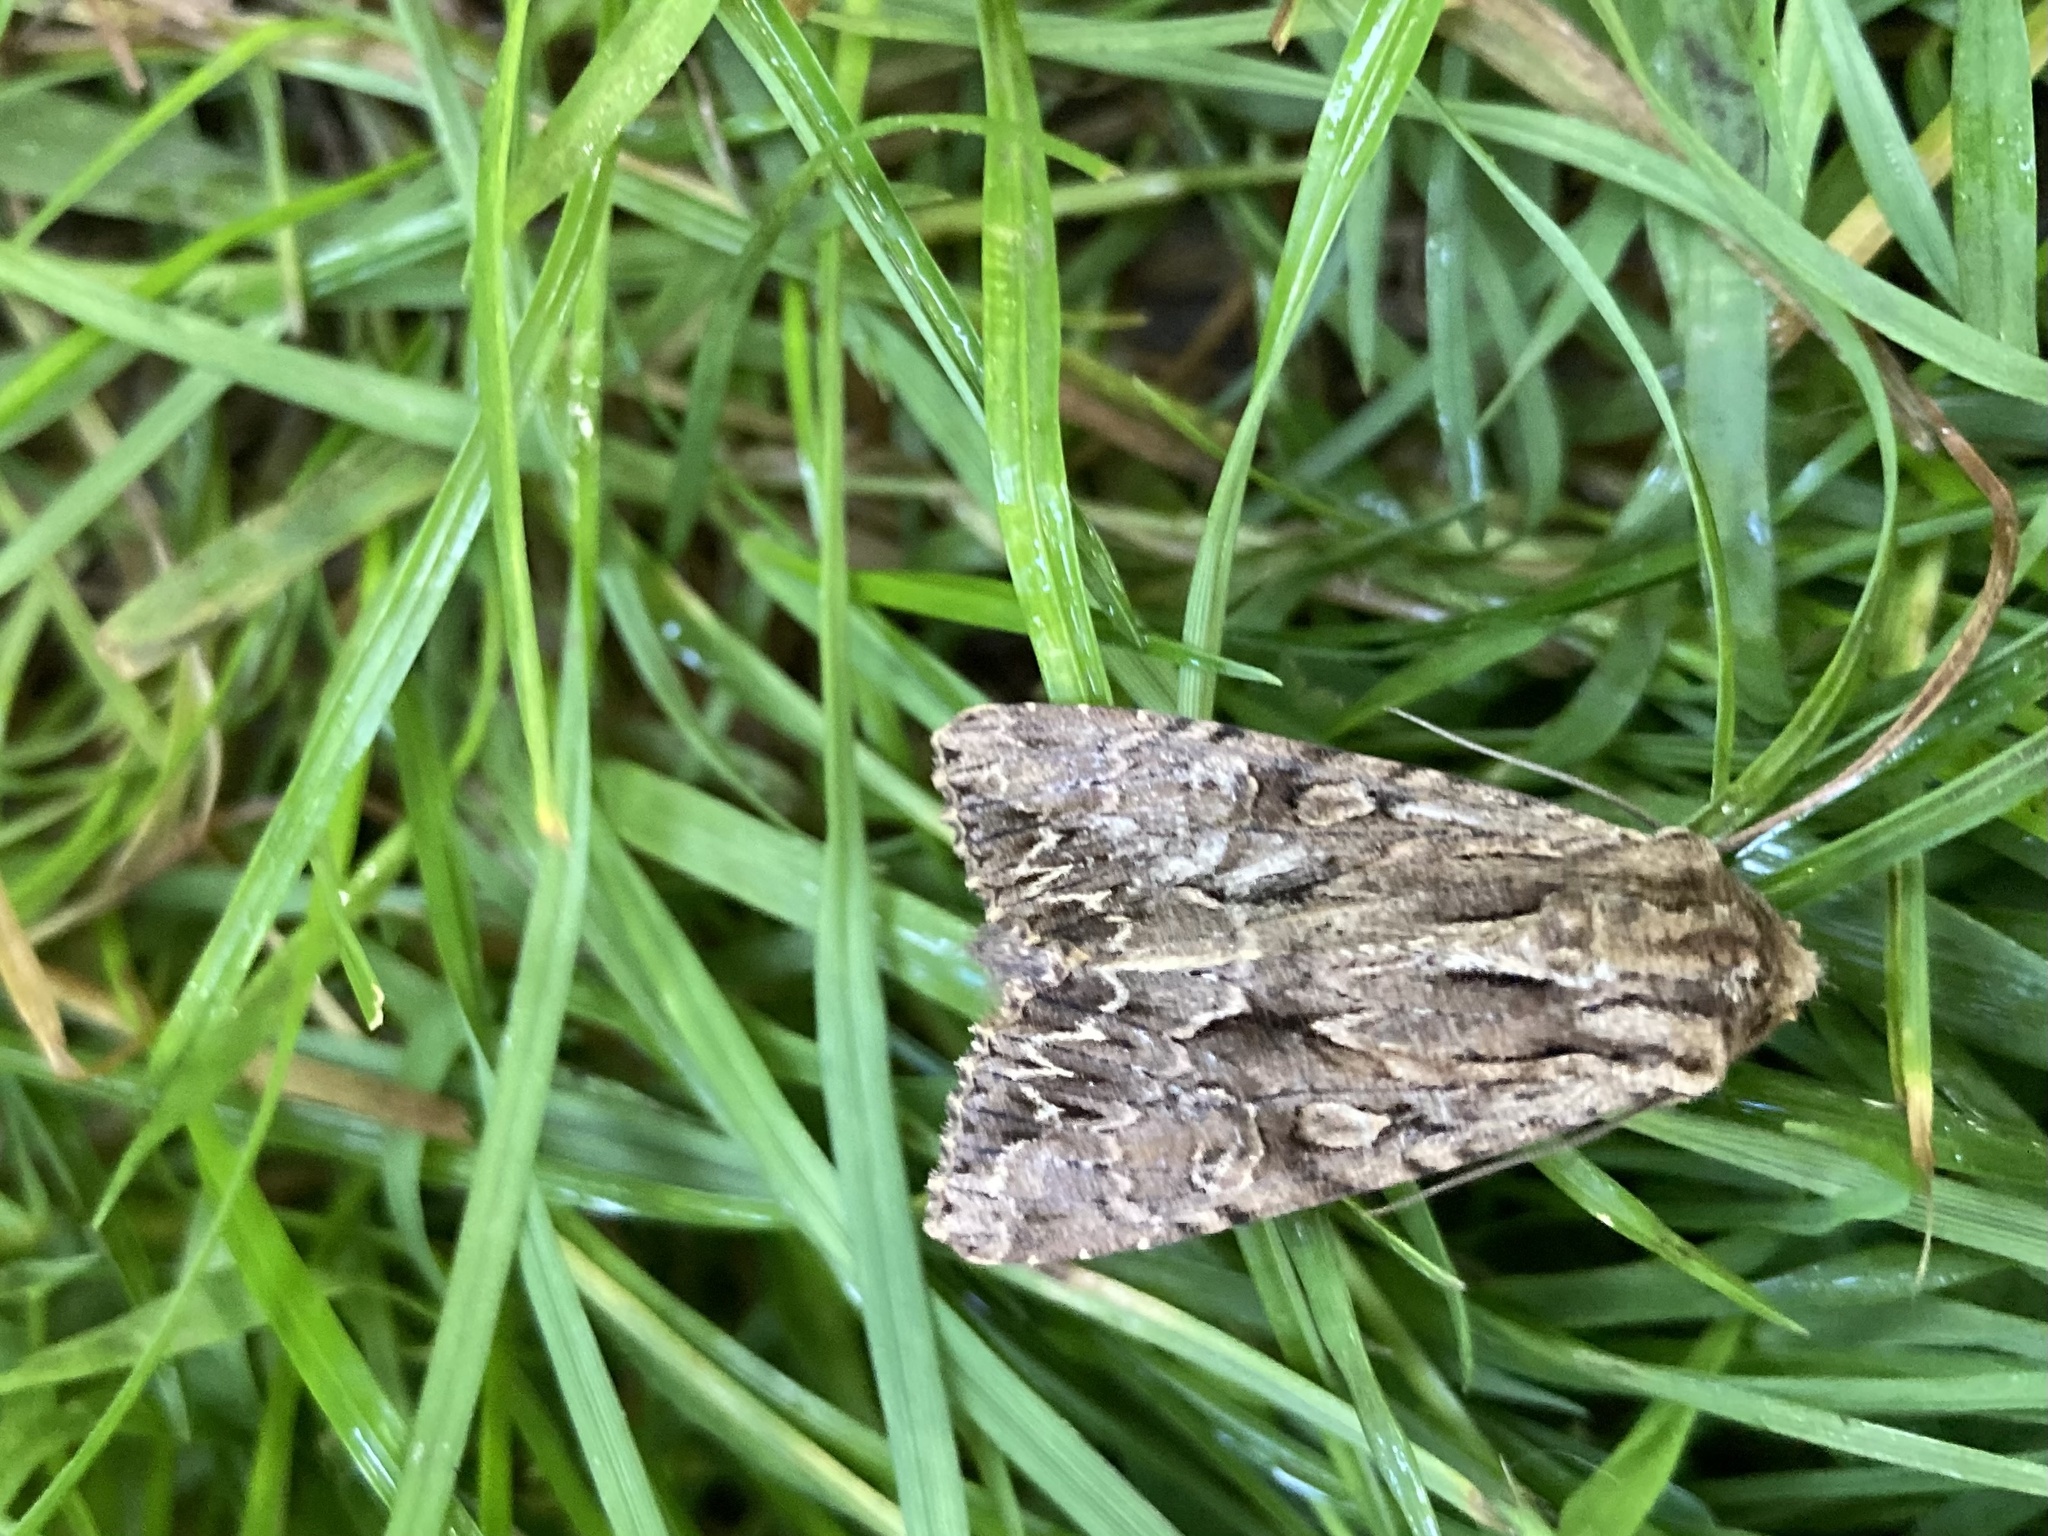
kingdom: Animalia
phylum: Arthropoda
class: Insecta
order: Lepidoptera
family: Noctuidae
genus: Apamea
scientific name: Apamea monoglypha
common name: Dark arches
